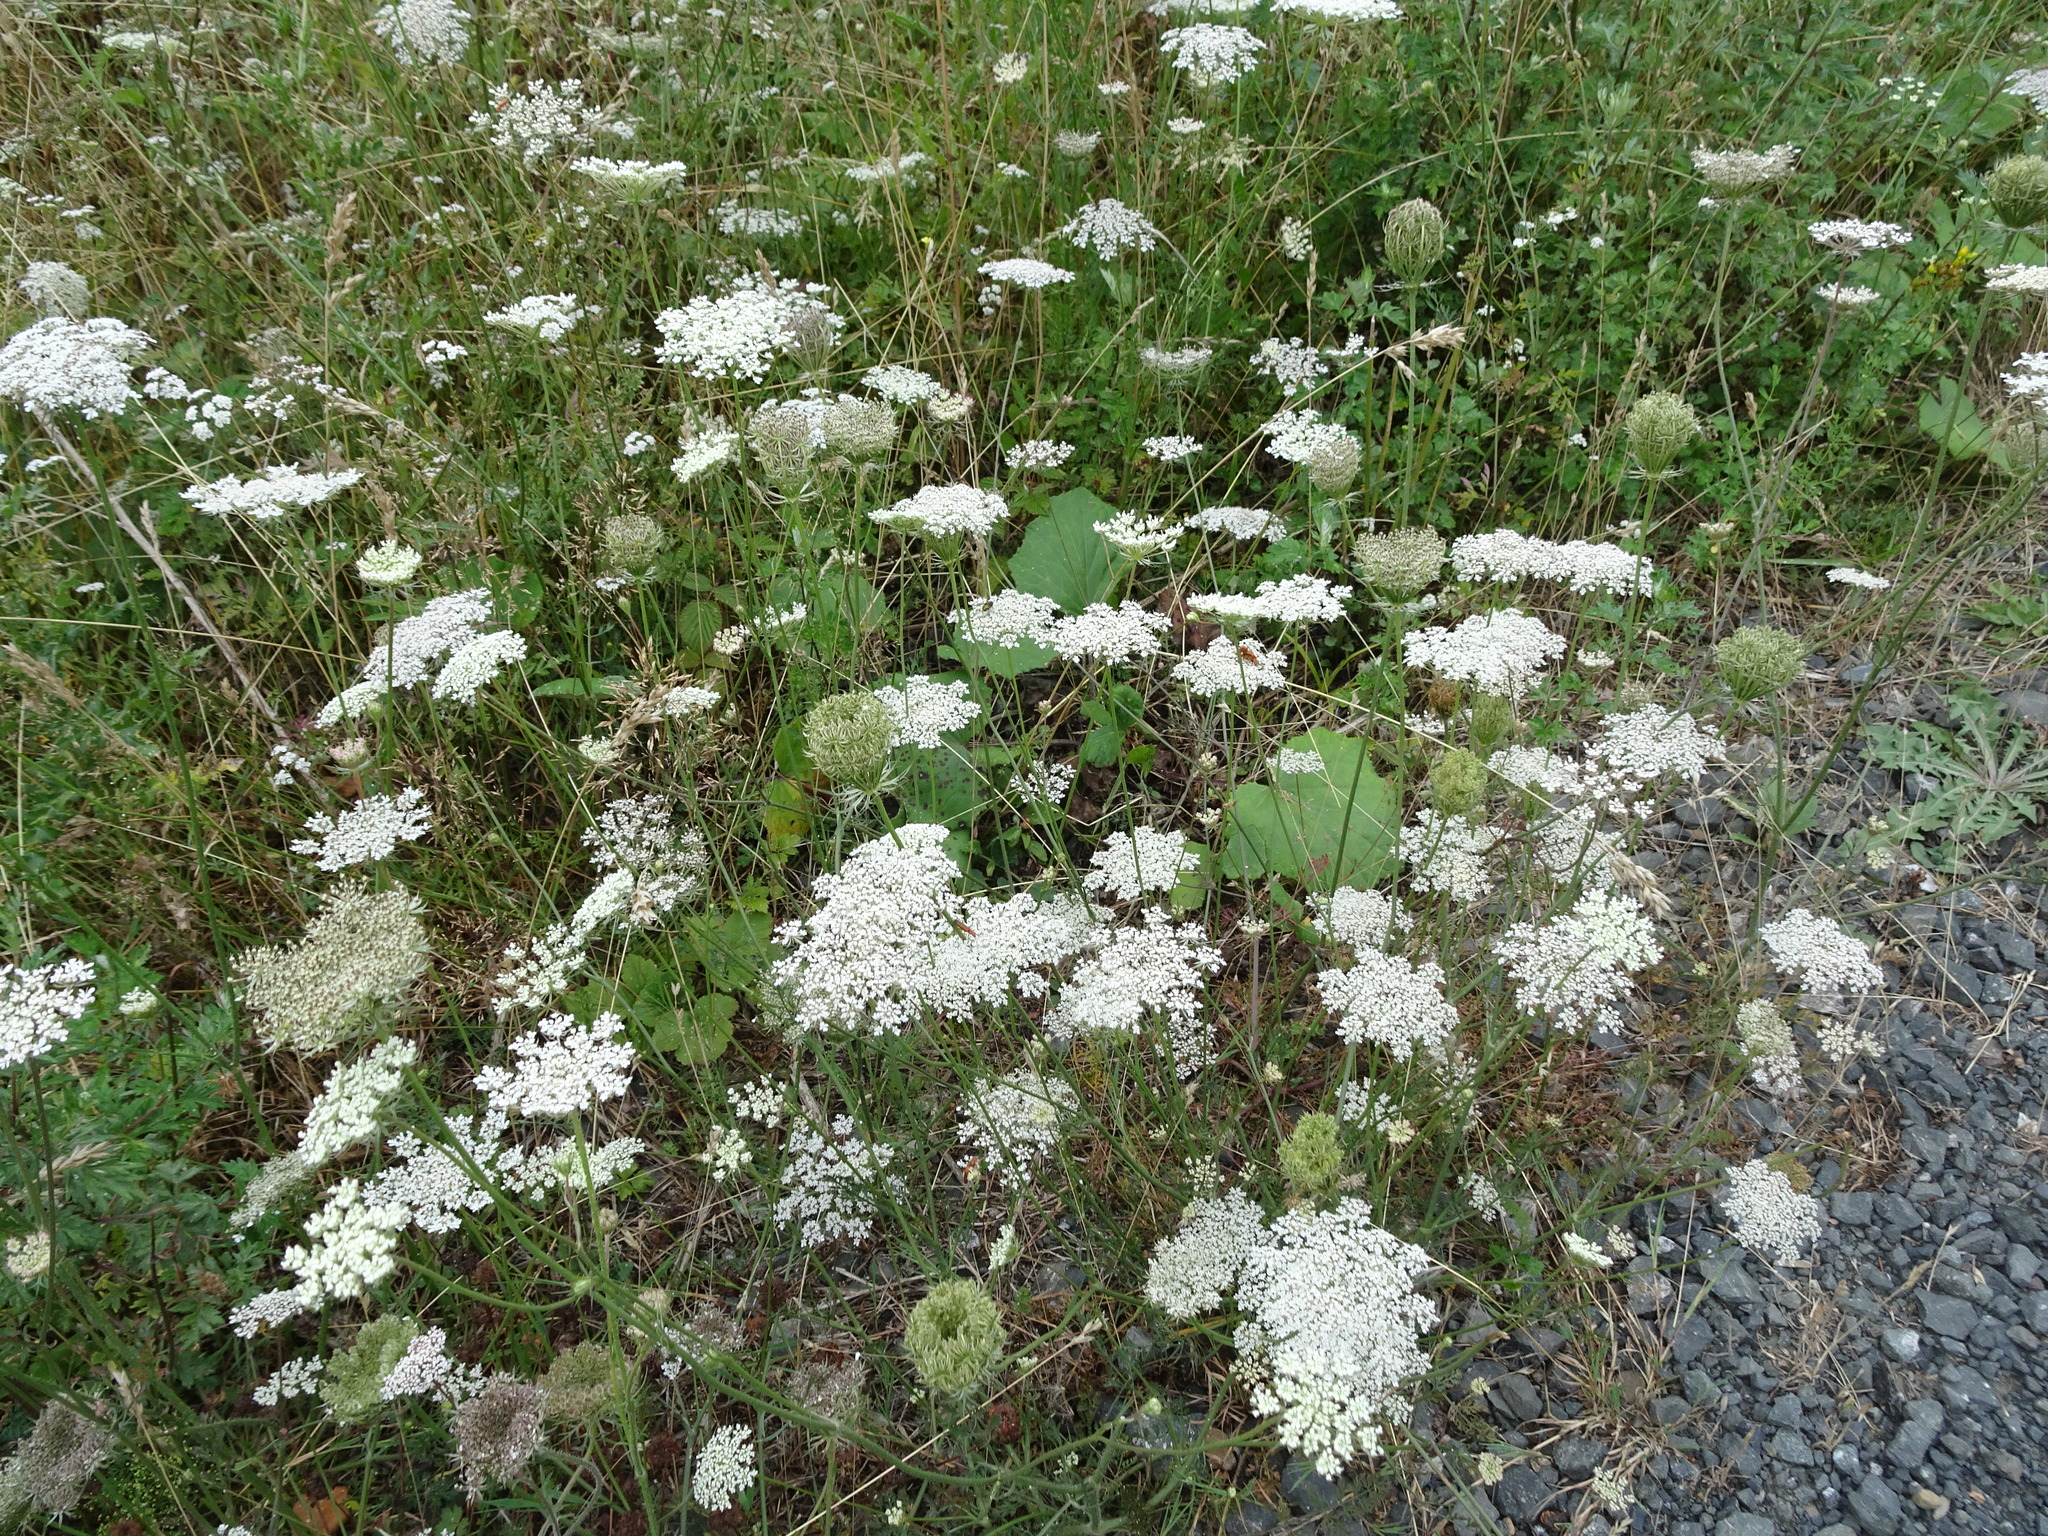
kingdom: Plantae
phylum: Tracheophyta
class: Magnoliopsida
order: Apiales
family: Apiaceae
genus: Daucus
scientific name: Daucus carota
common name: Wild carrot
